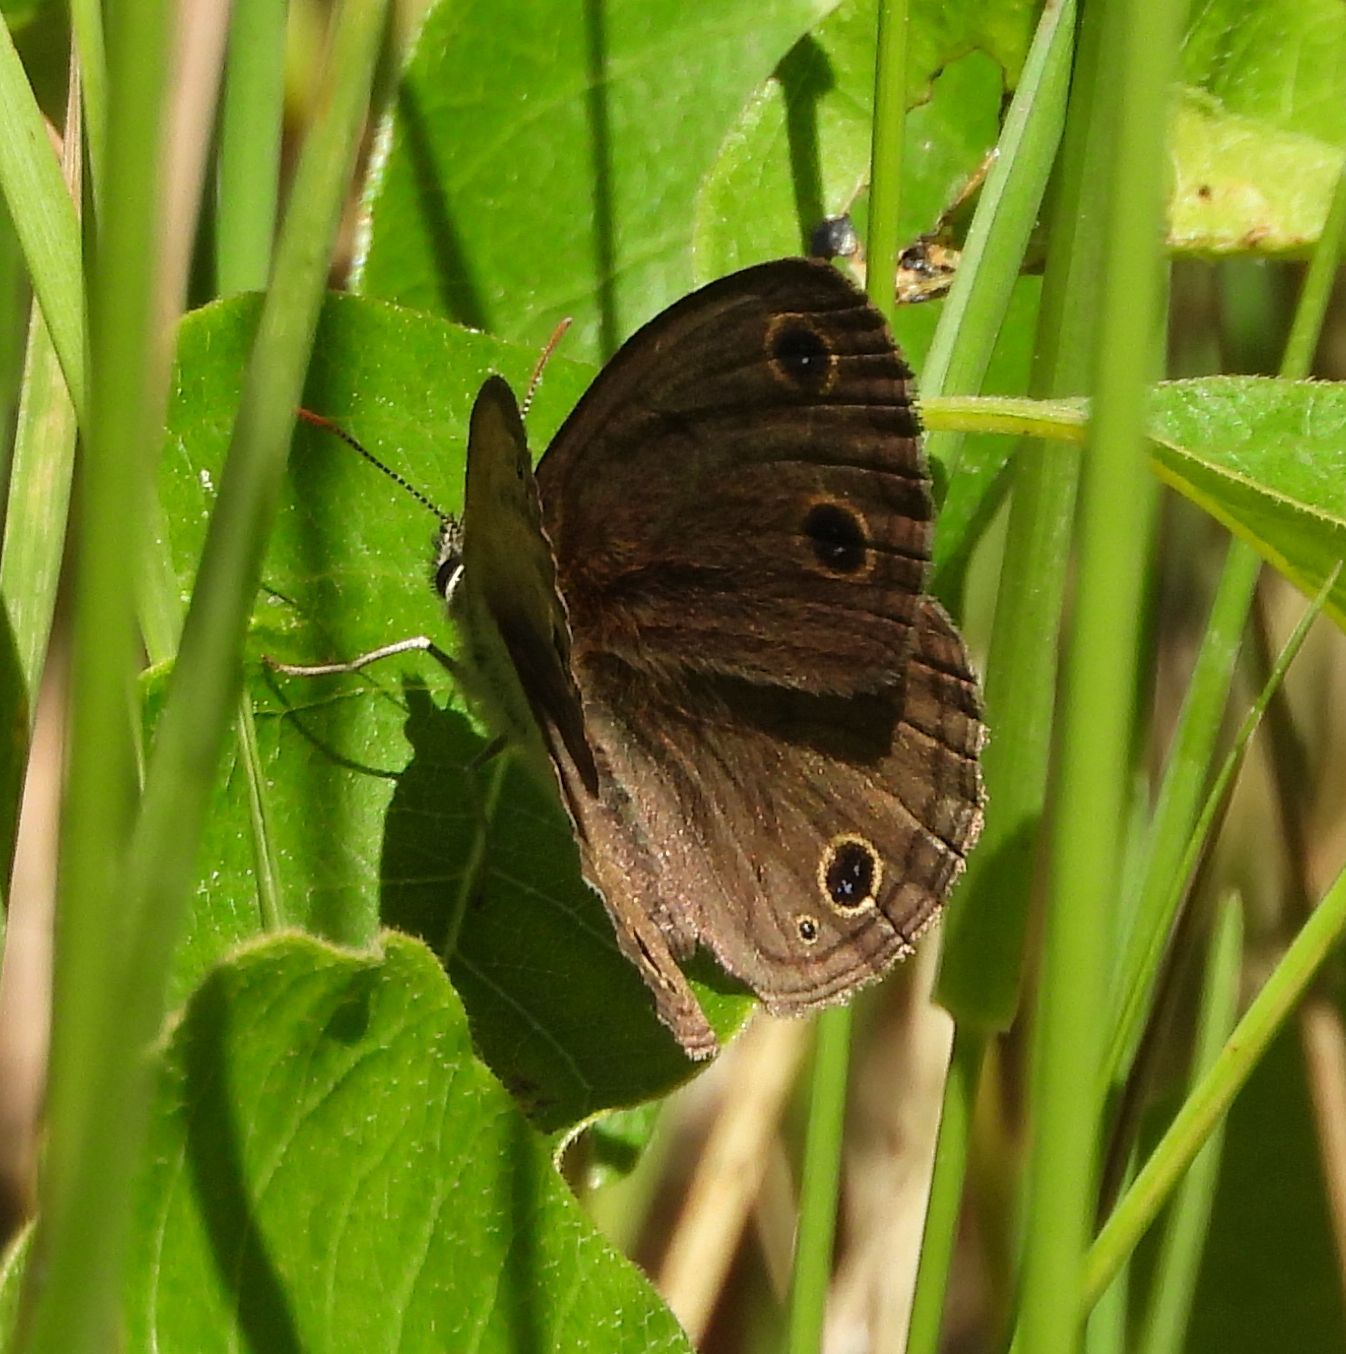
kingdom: Animalia
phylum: Arthropoda
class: Insecta
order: Lepidoptera
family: Nymphalidae
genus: Euptychia
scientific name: Euptychia cymela
